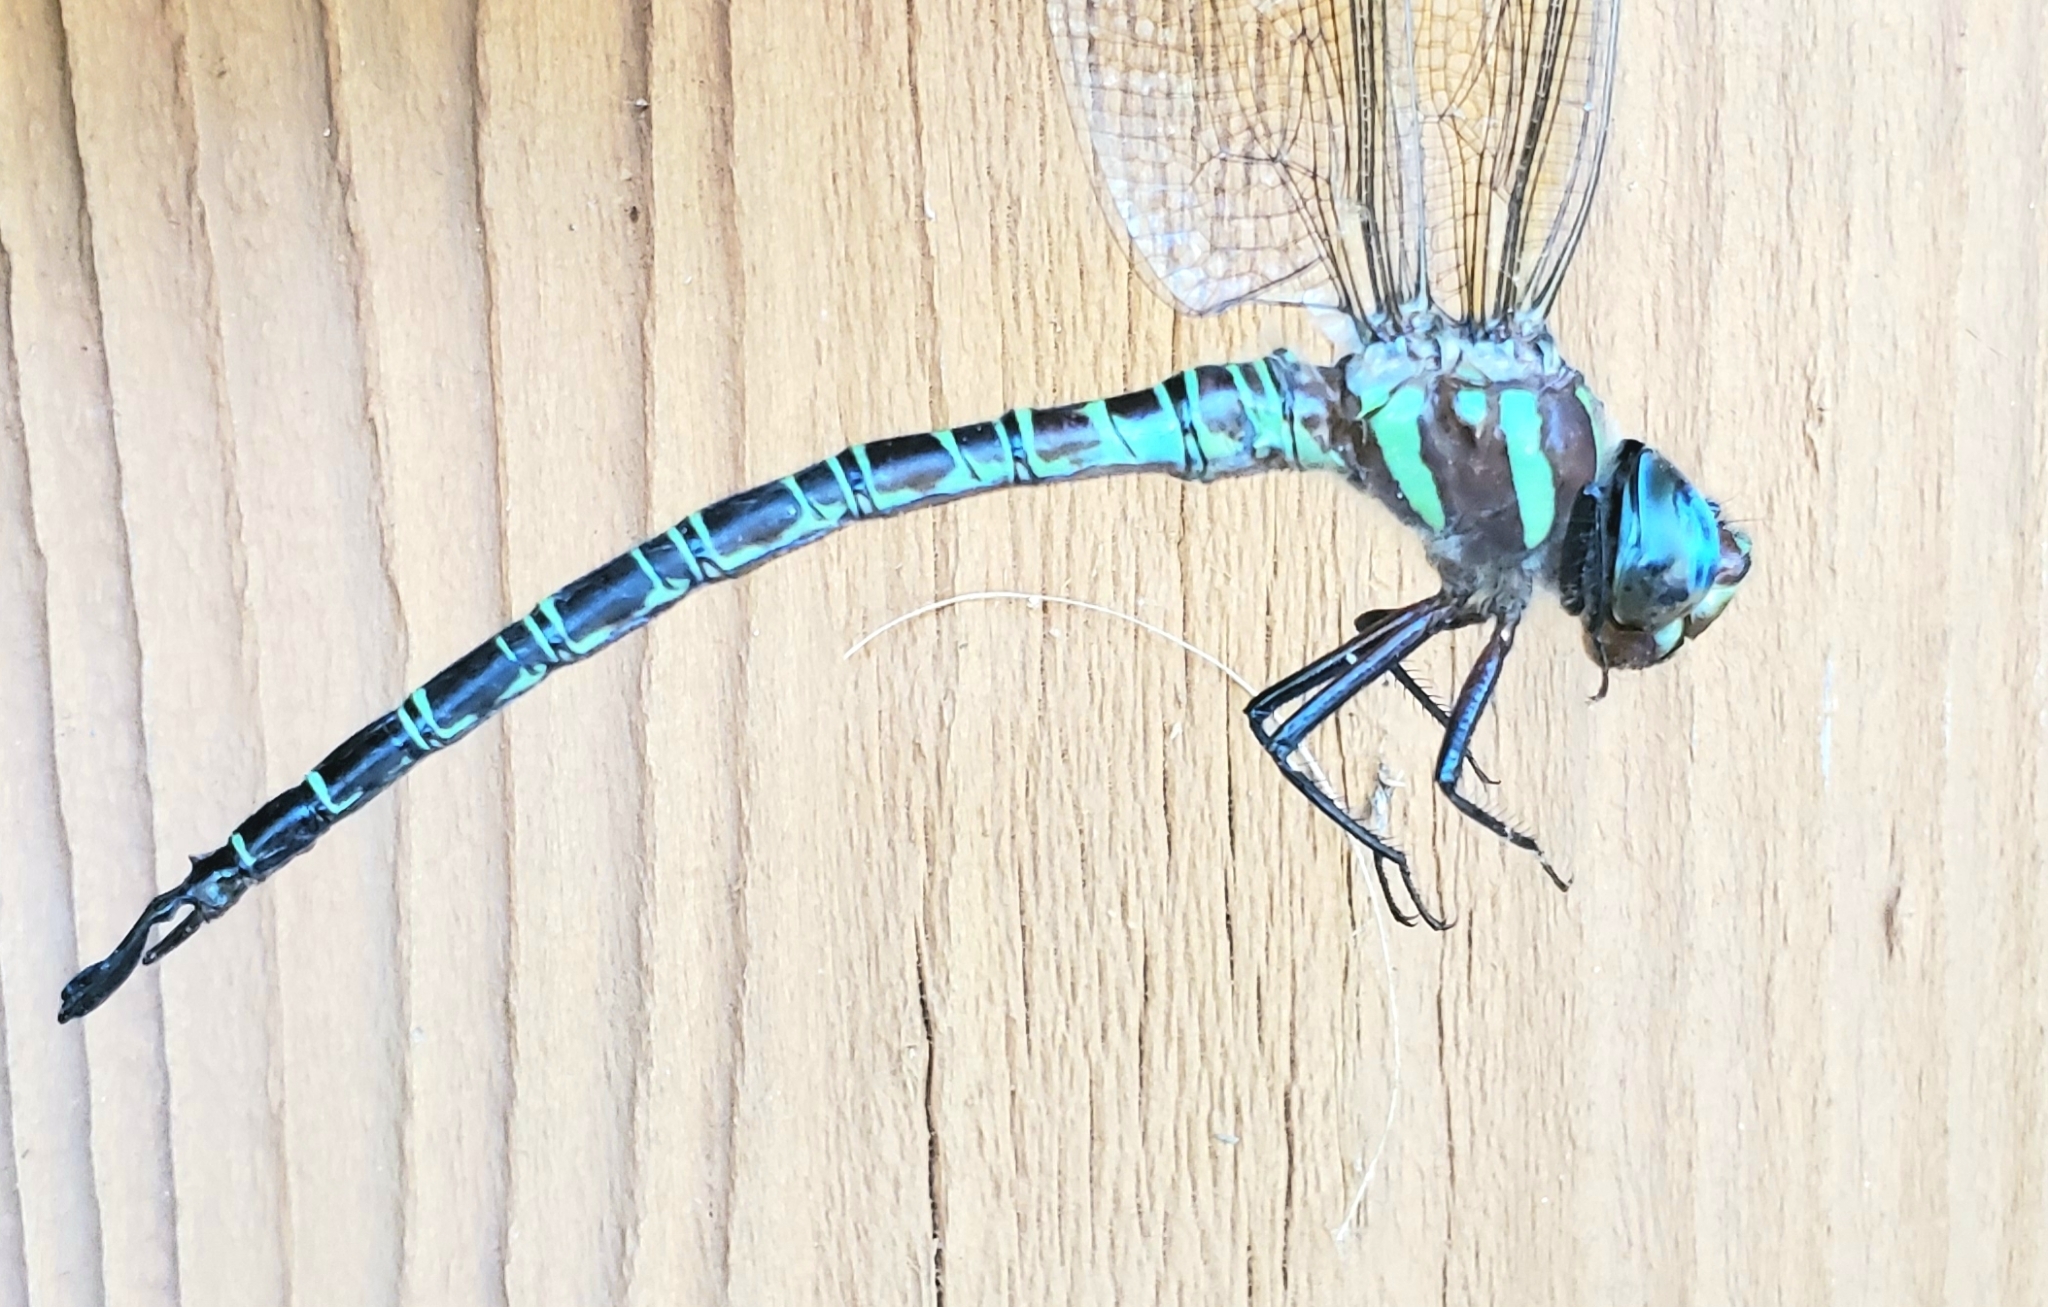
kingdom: Animalia
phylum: Arthropoda
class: Insecta
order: Odonata
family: Aeshnidae
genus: Epiaeschna
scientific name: Epiaeschna heros
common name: Swamp darner
